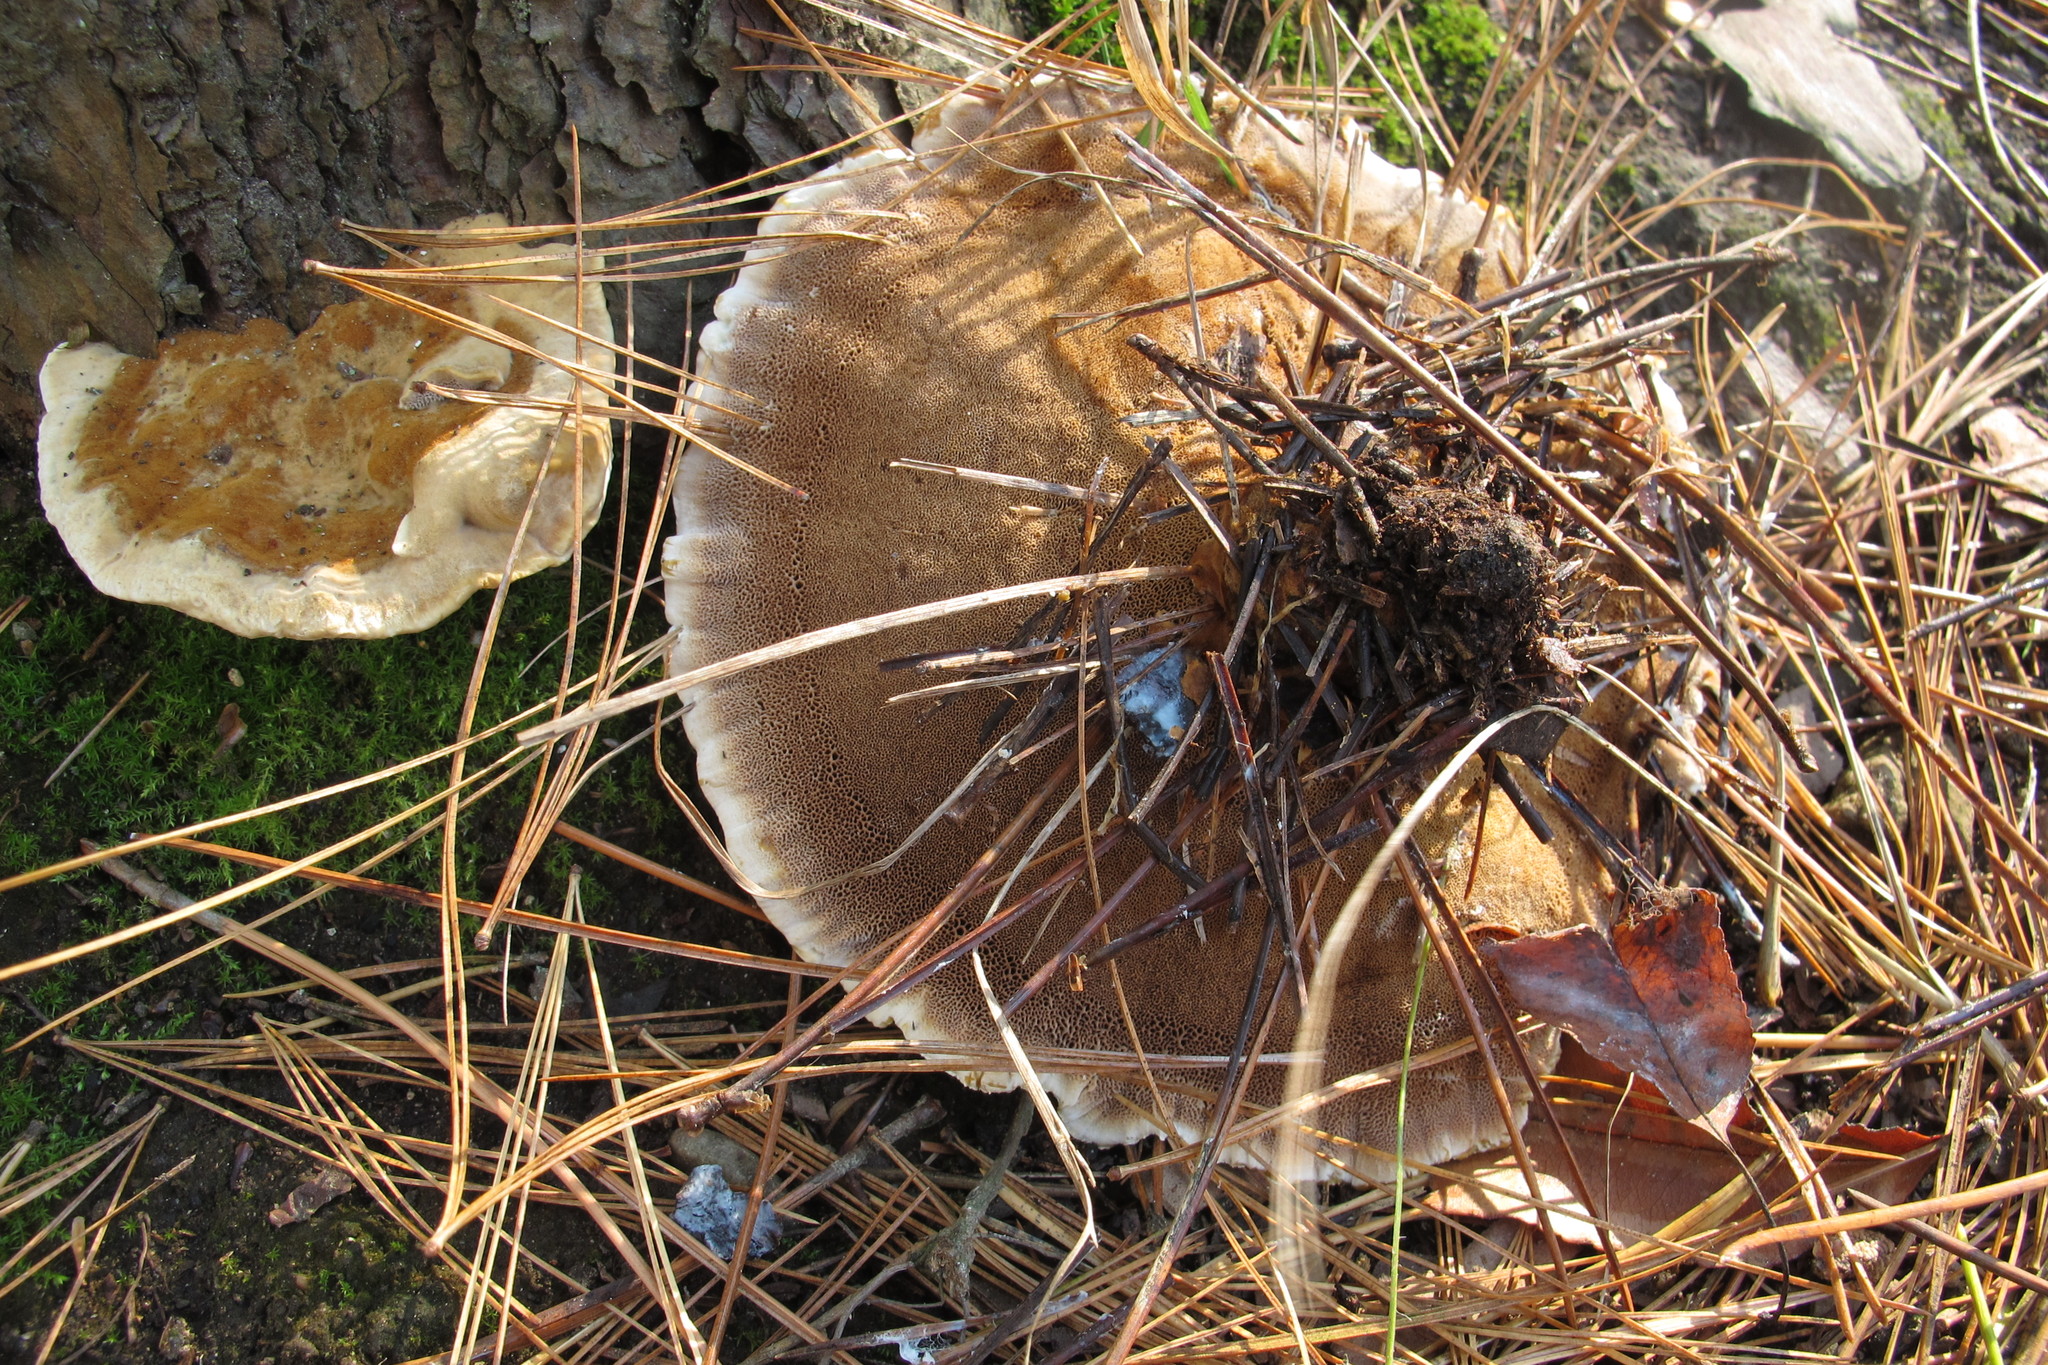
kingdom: Fungi
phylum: Basidiomycota
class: Agaricomycetes
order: Hymenochaetales
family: Hymenochaetaceae
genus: Onnia
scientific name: Onnia tomentosa
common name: Velvet rosette
